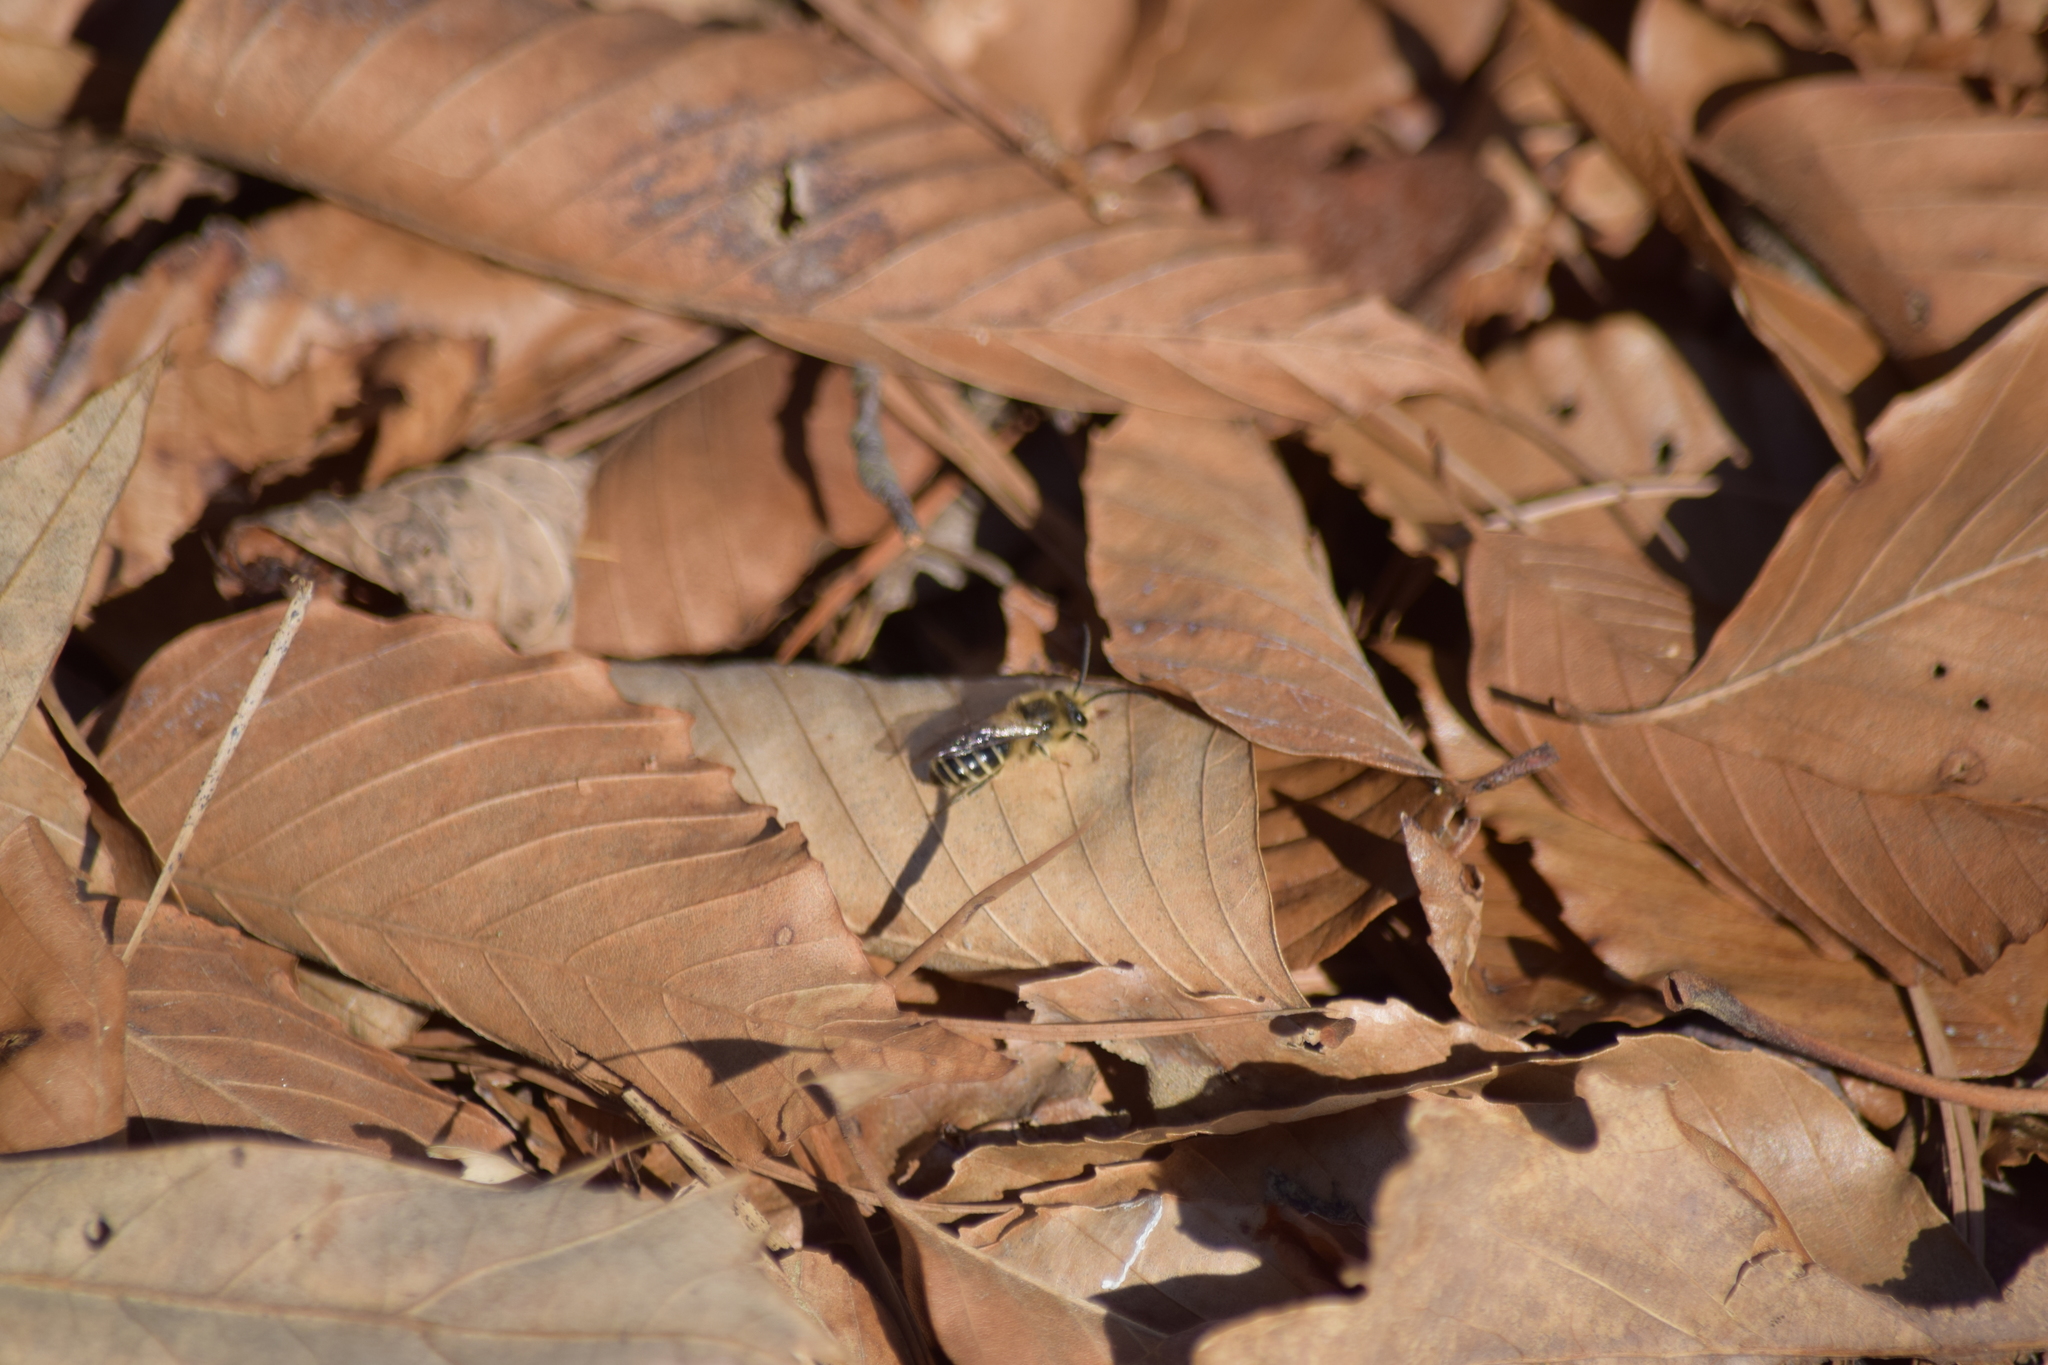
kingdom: Animalia
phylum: Arthropoda
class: Insecta
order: Hymenoptera
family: Colletidae
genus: Colletes
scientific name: Colletes inaequalis
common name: Unequal cellophane bee
